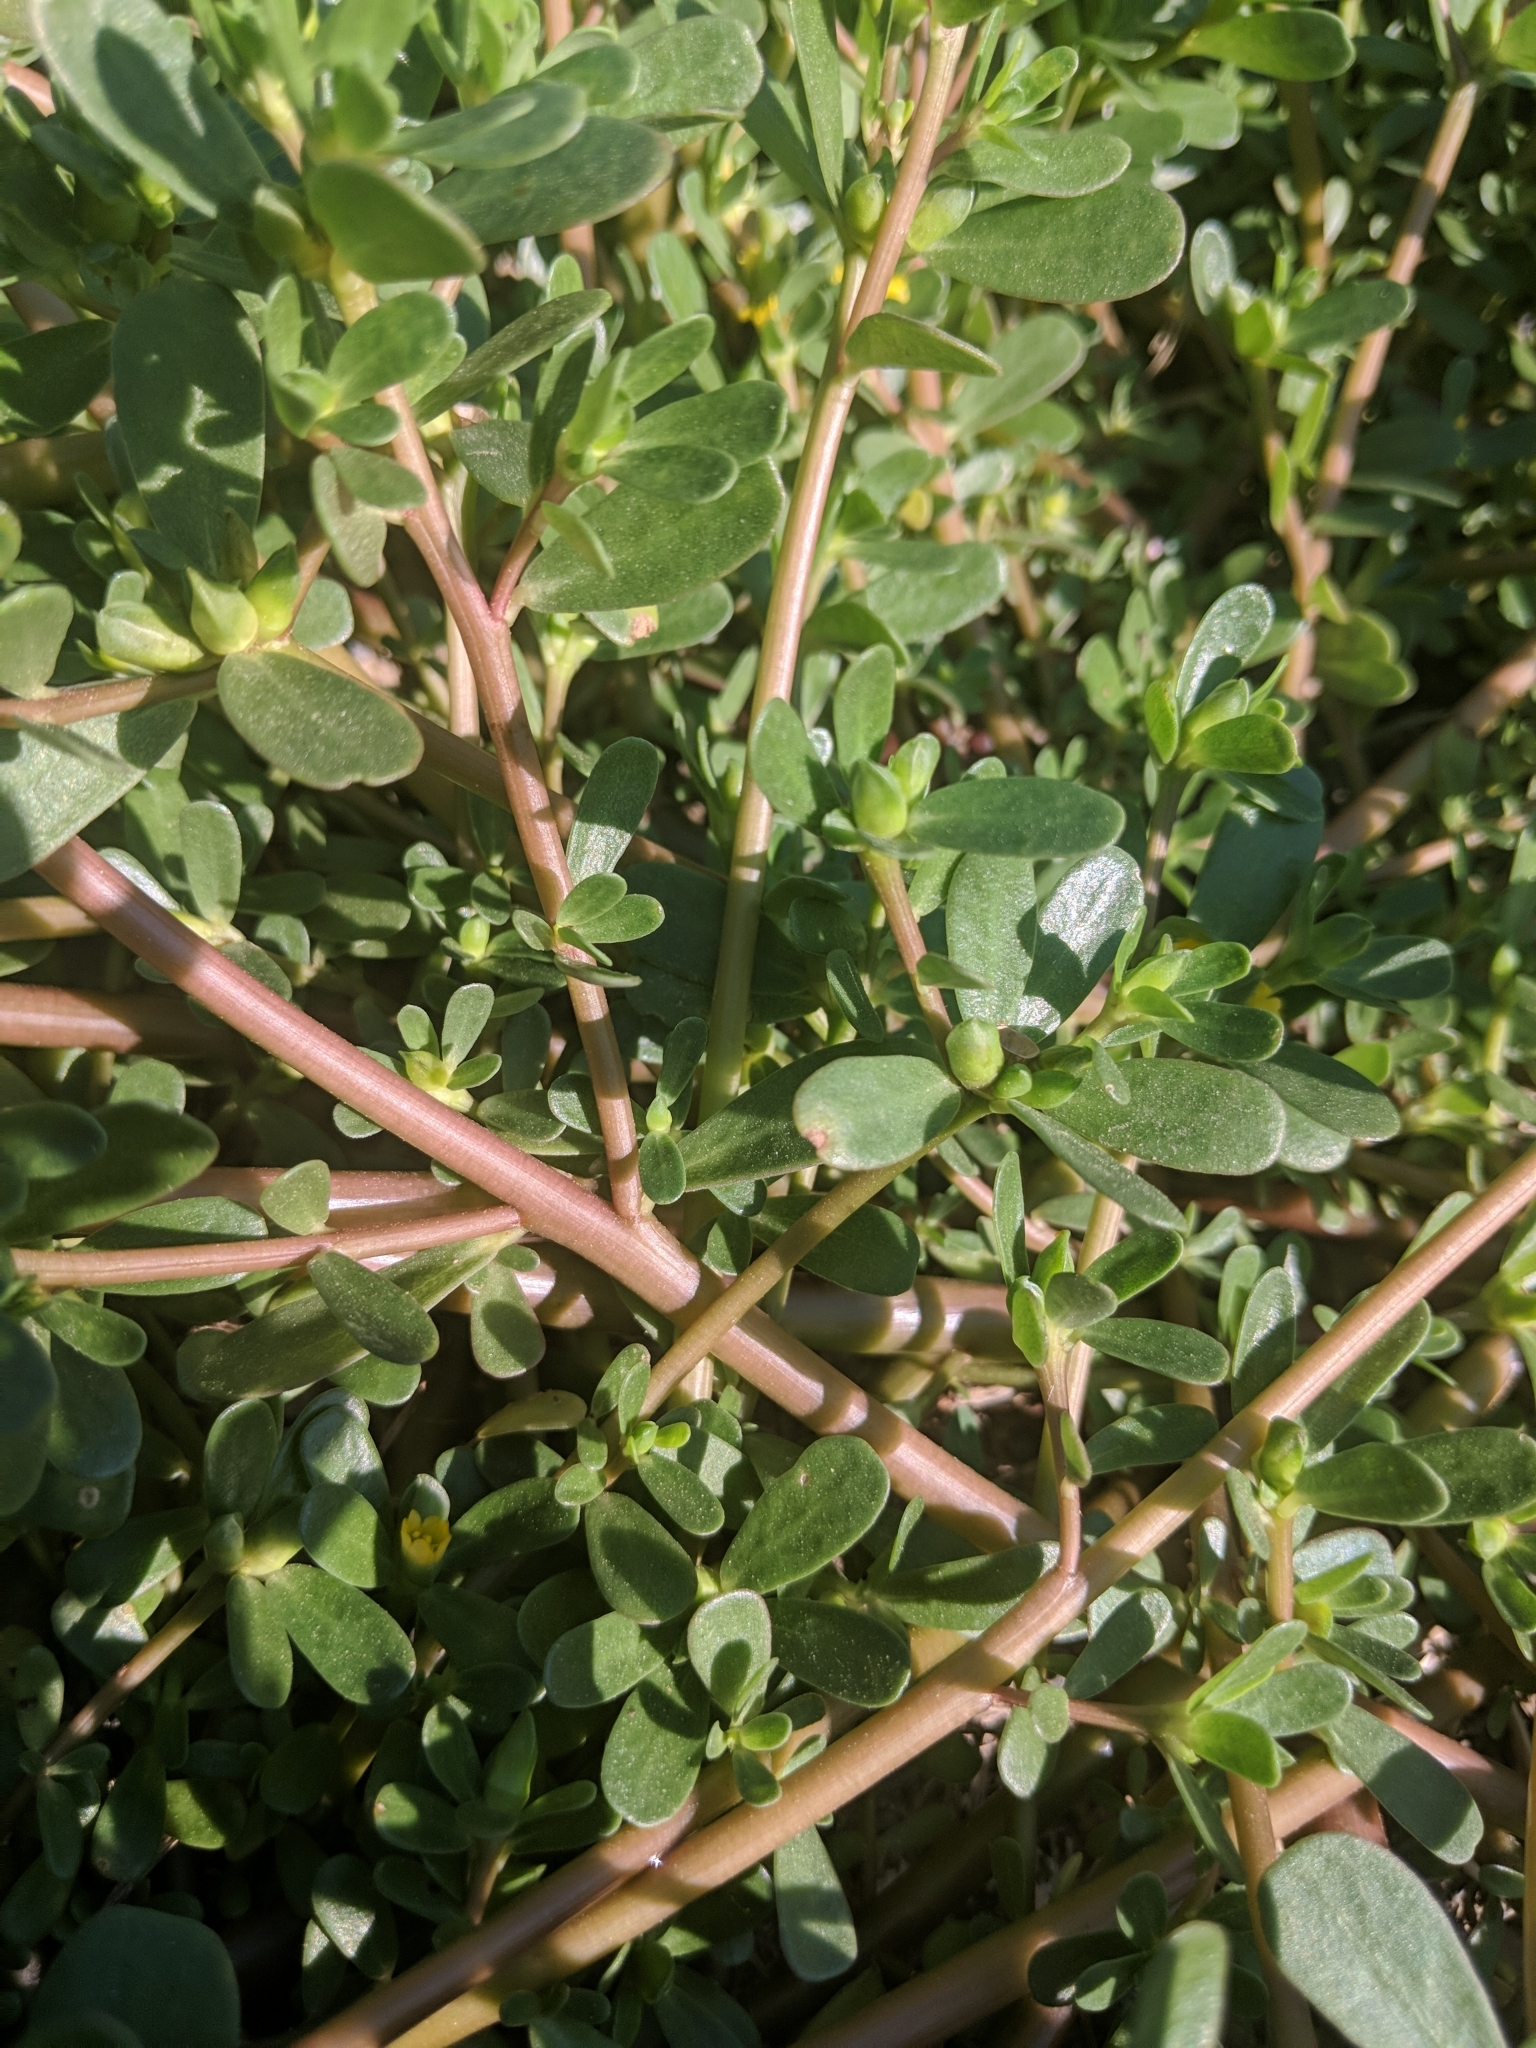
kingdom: Plantae
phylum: Tracheophyta
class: Magnoliopsida
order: Caryophyllales
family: Portulacaceae
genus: Portulaca
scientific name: Portulaca oleracea
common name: Common purslane
